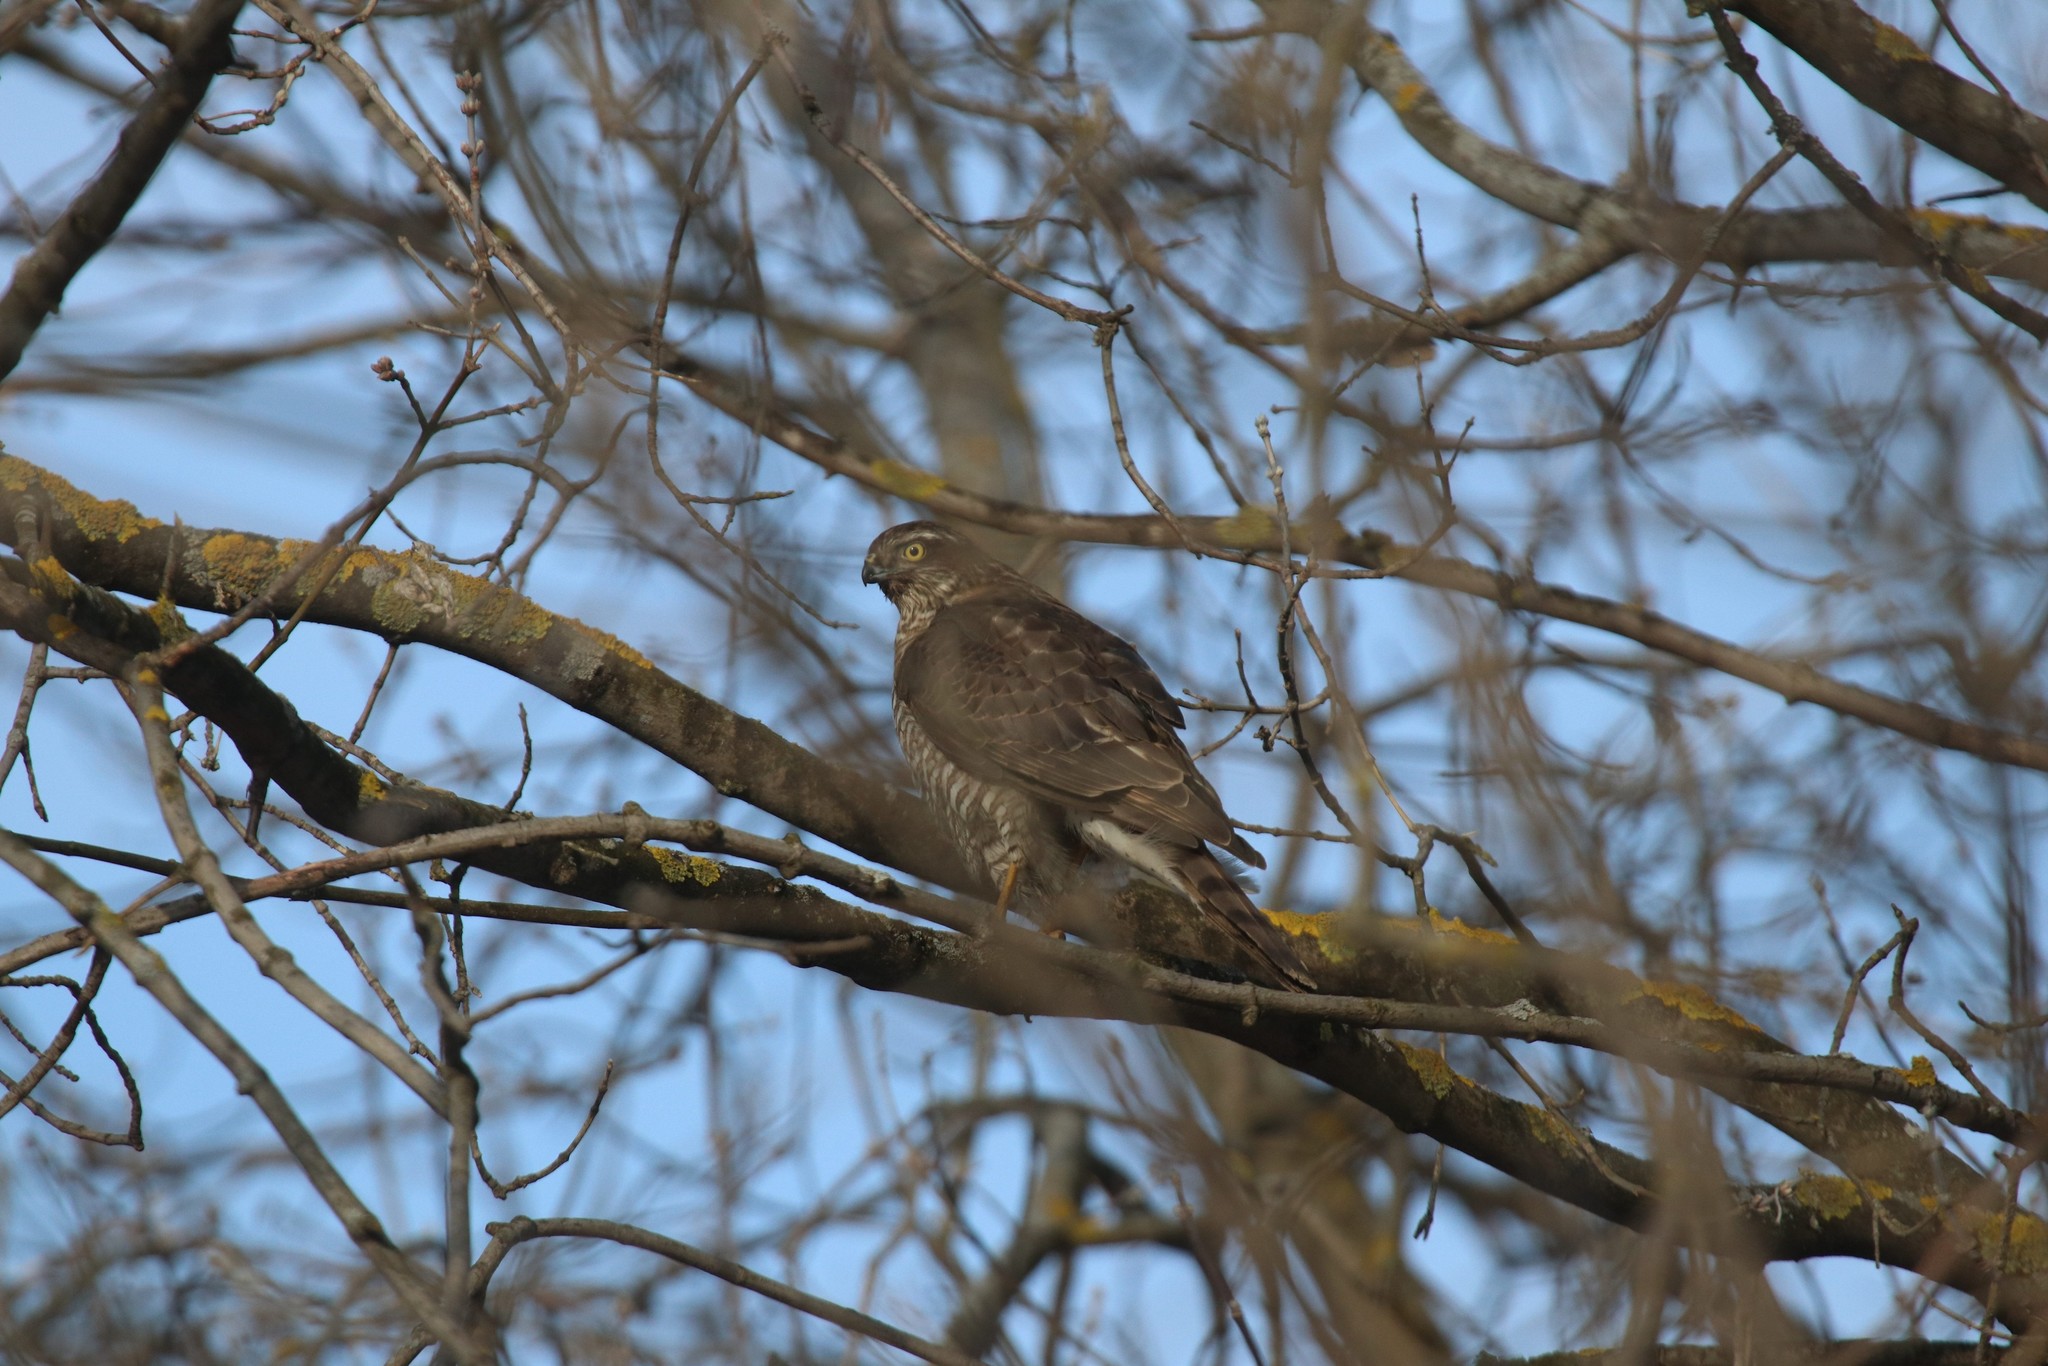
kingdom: Animalia
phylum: Chordata
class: Aves
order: Accipitriformes
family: Accipitridae
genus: Accipiter
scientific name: Accipiter nisus
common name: Eurasian sparrowhawk
